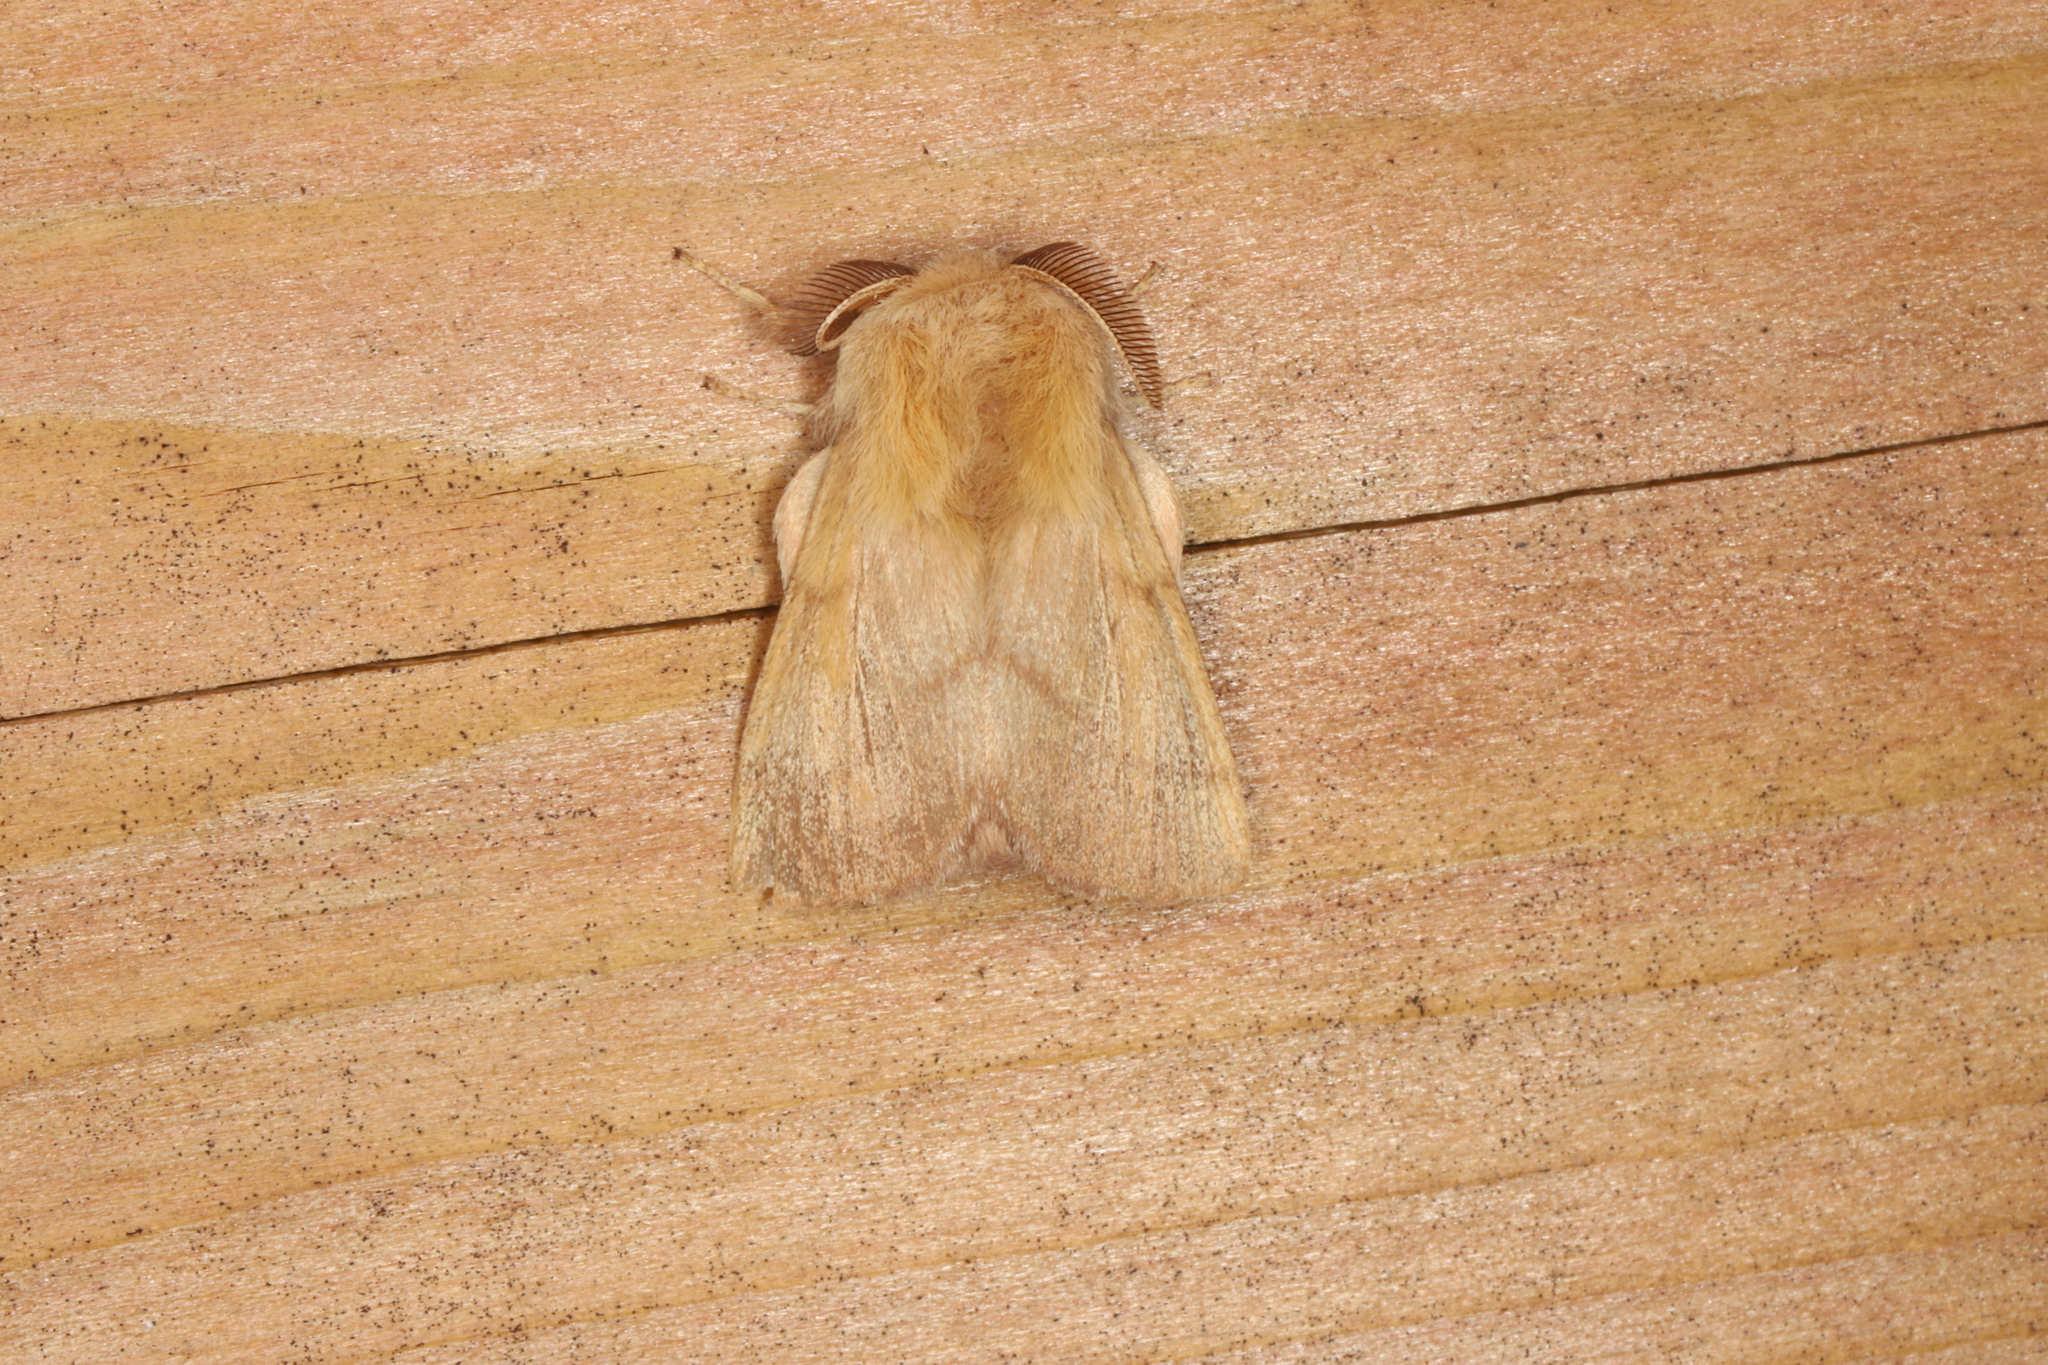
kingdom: Animalia
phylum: Arthropoda
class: Insecta
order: Lepidoptera
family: Lasiocampidae
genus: Malacosoma
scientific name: Malacosoma disstria
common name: Forest tent caterpillar
